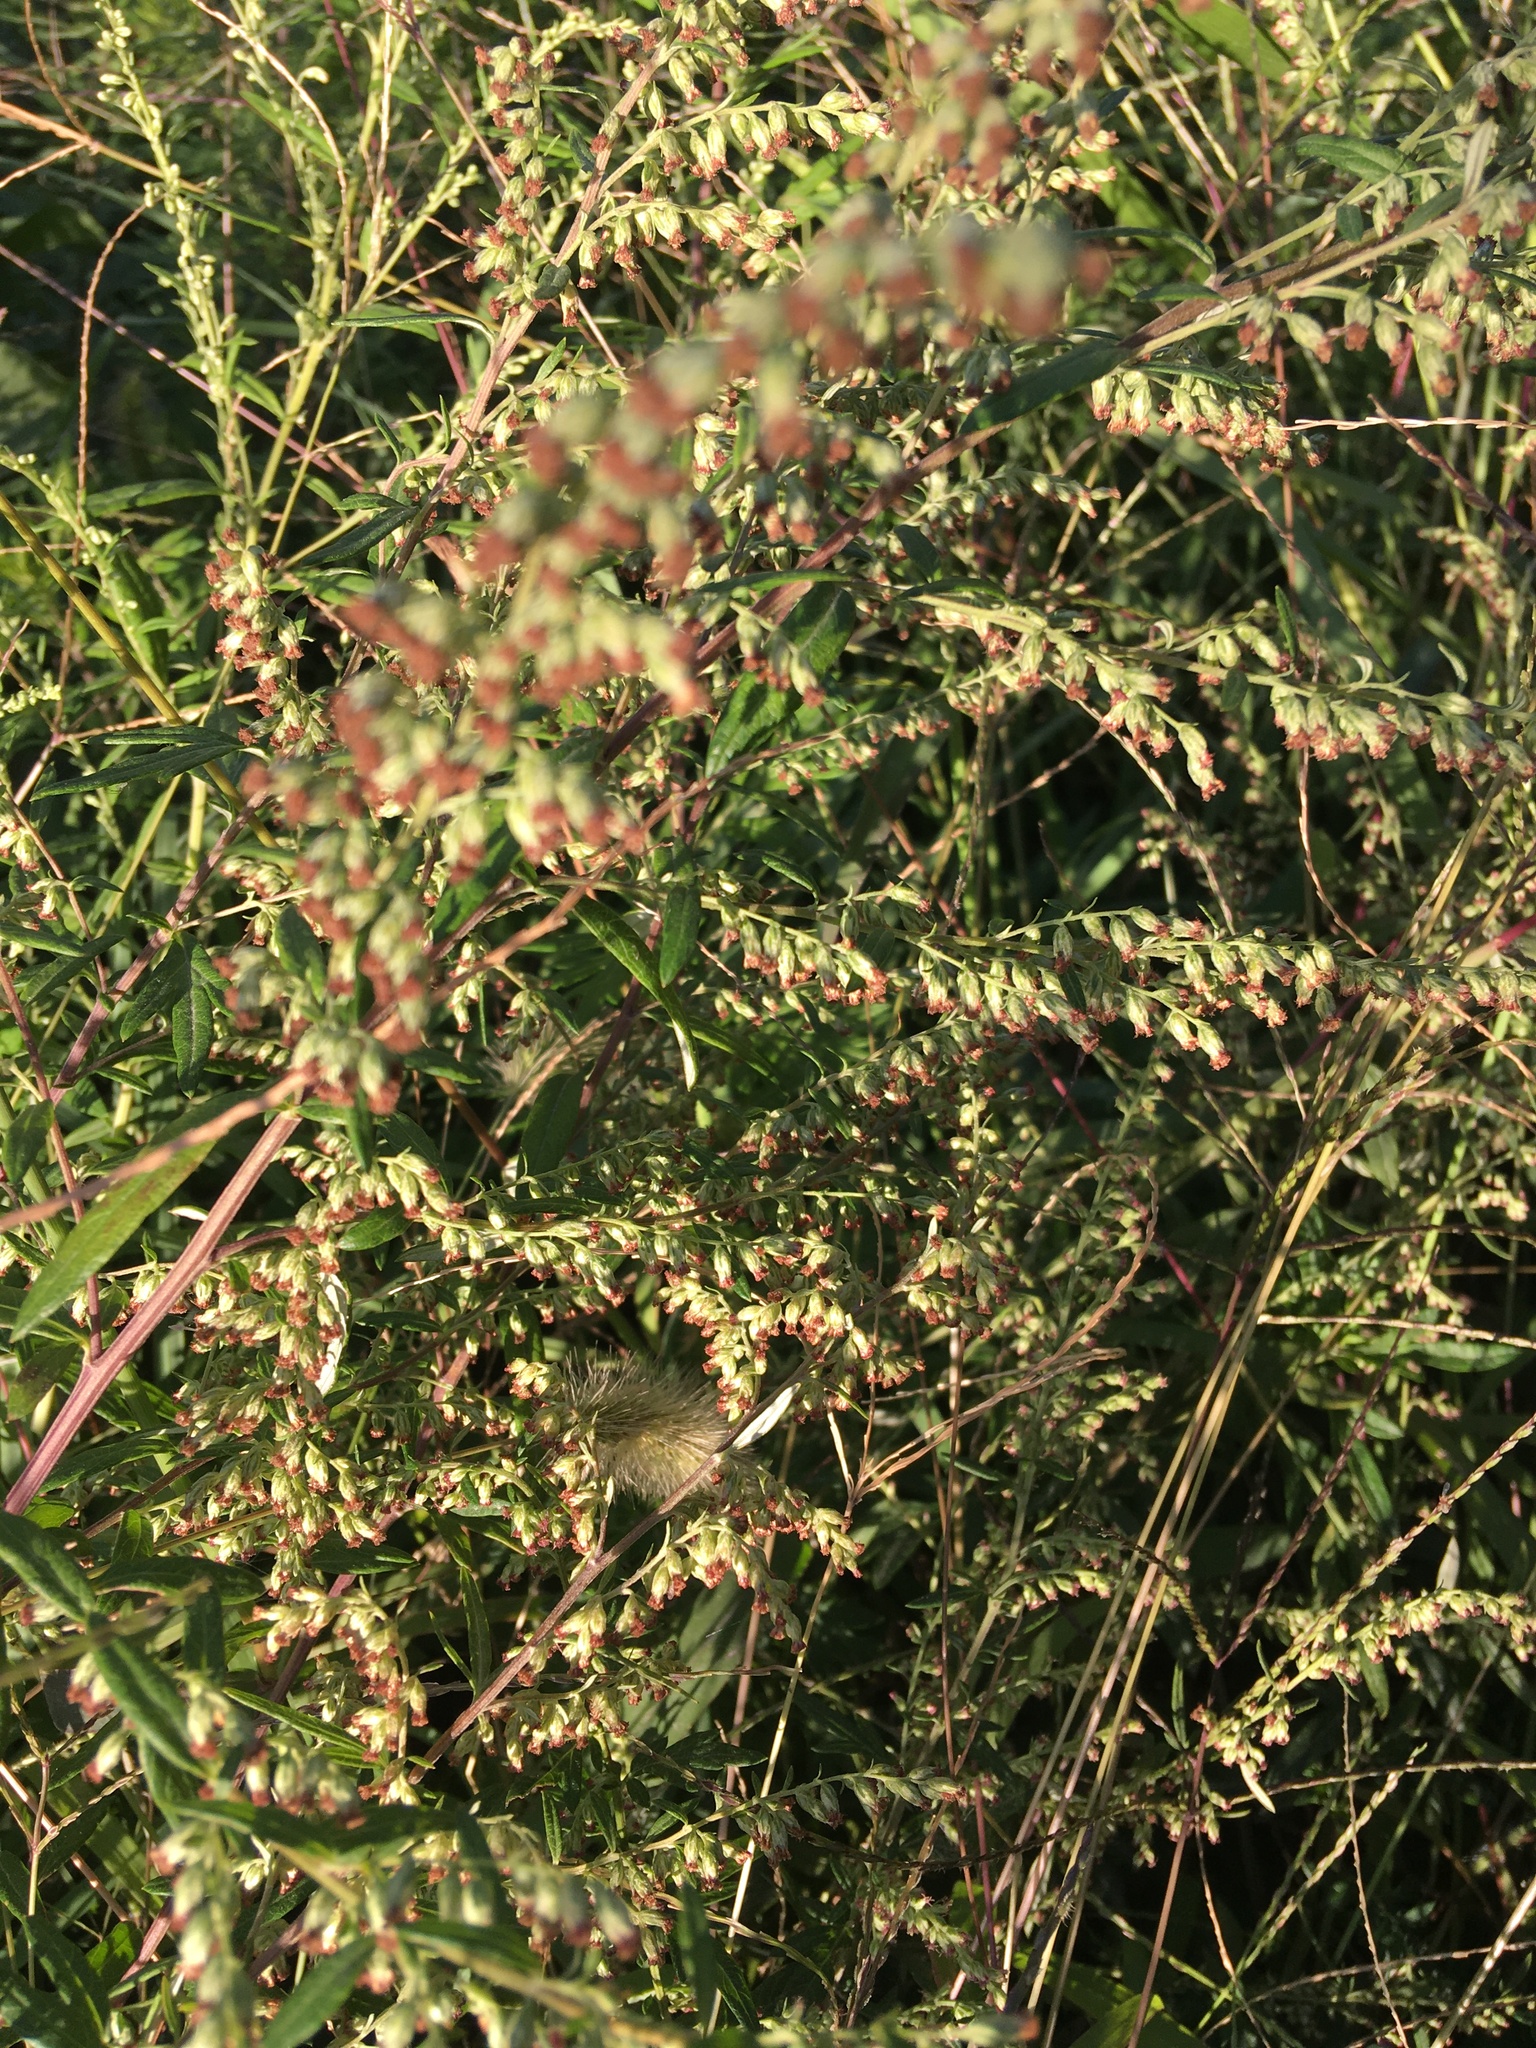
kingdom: Plantae
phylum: Tracheophyta
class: Magnoliopsida
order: Asterales
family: Asteraceae
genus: Artemisia
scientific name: Artemisia vulgaris
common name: Mugwort
